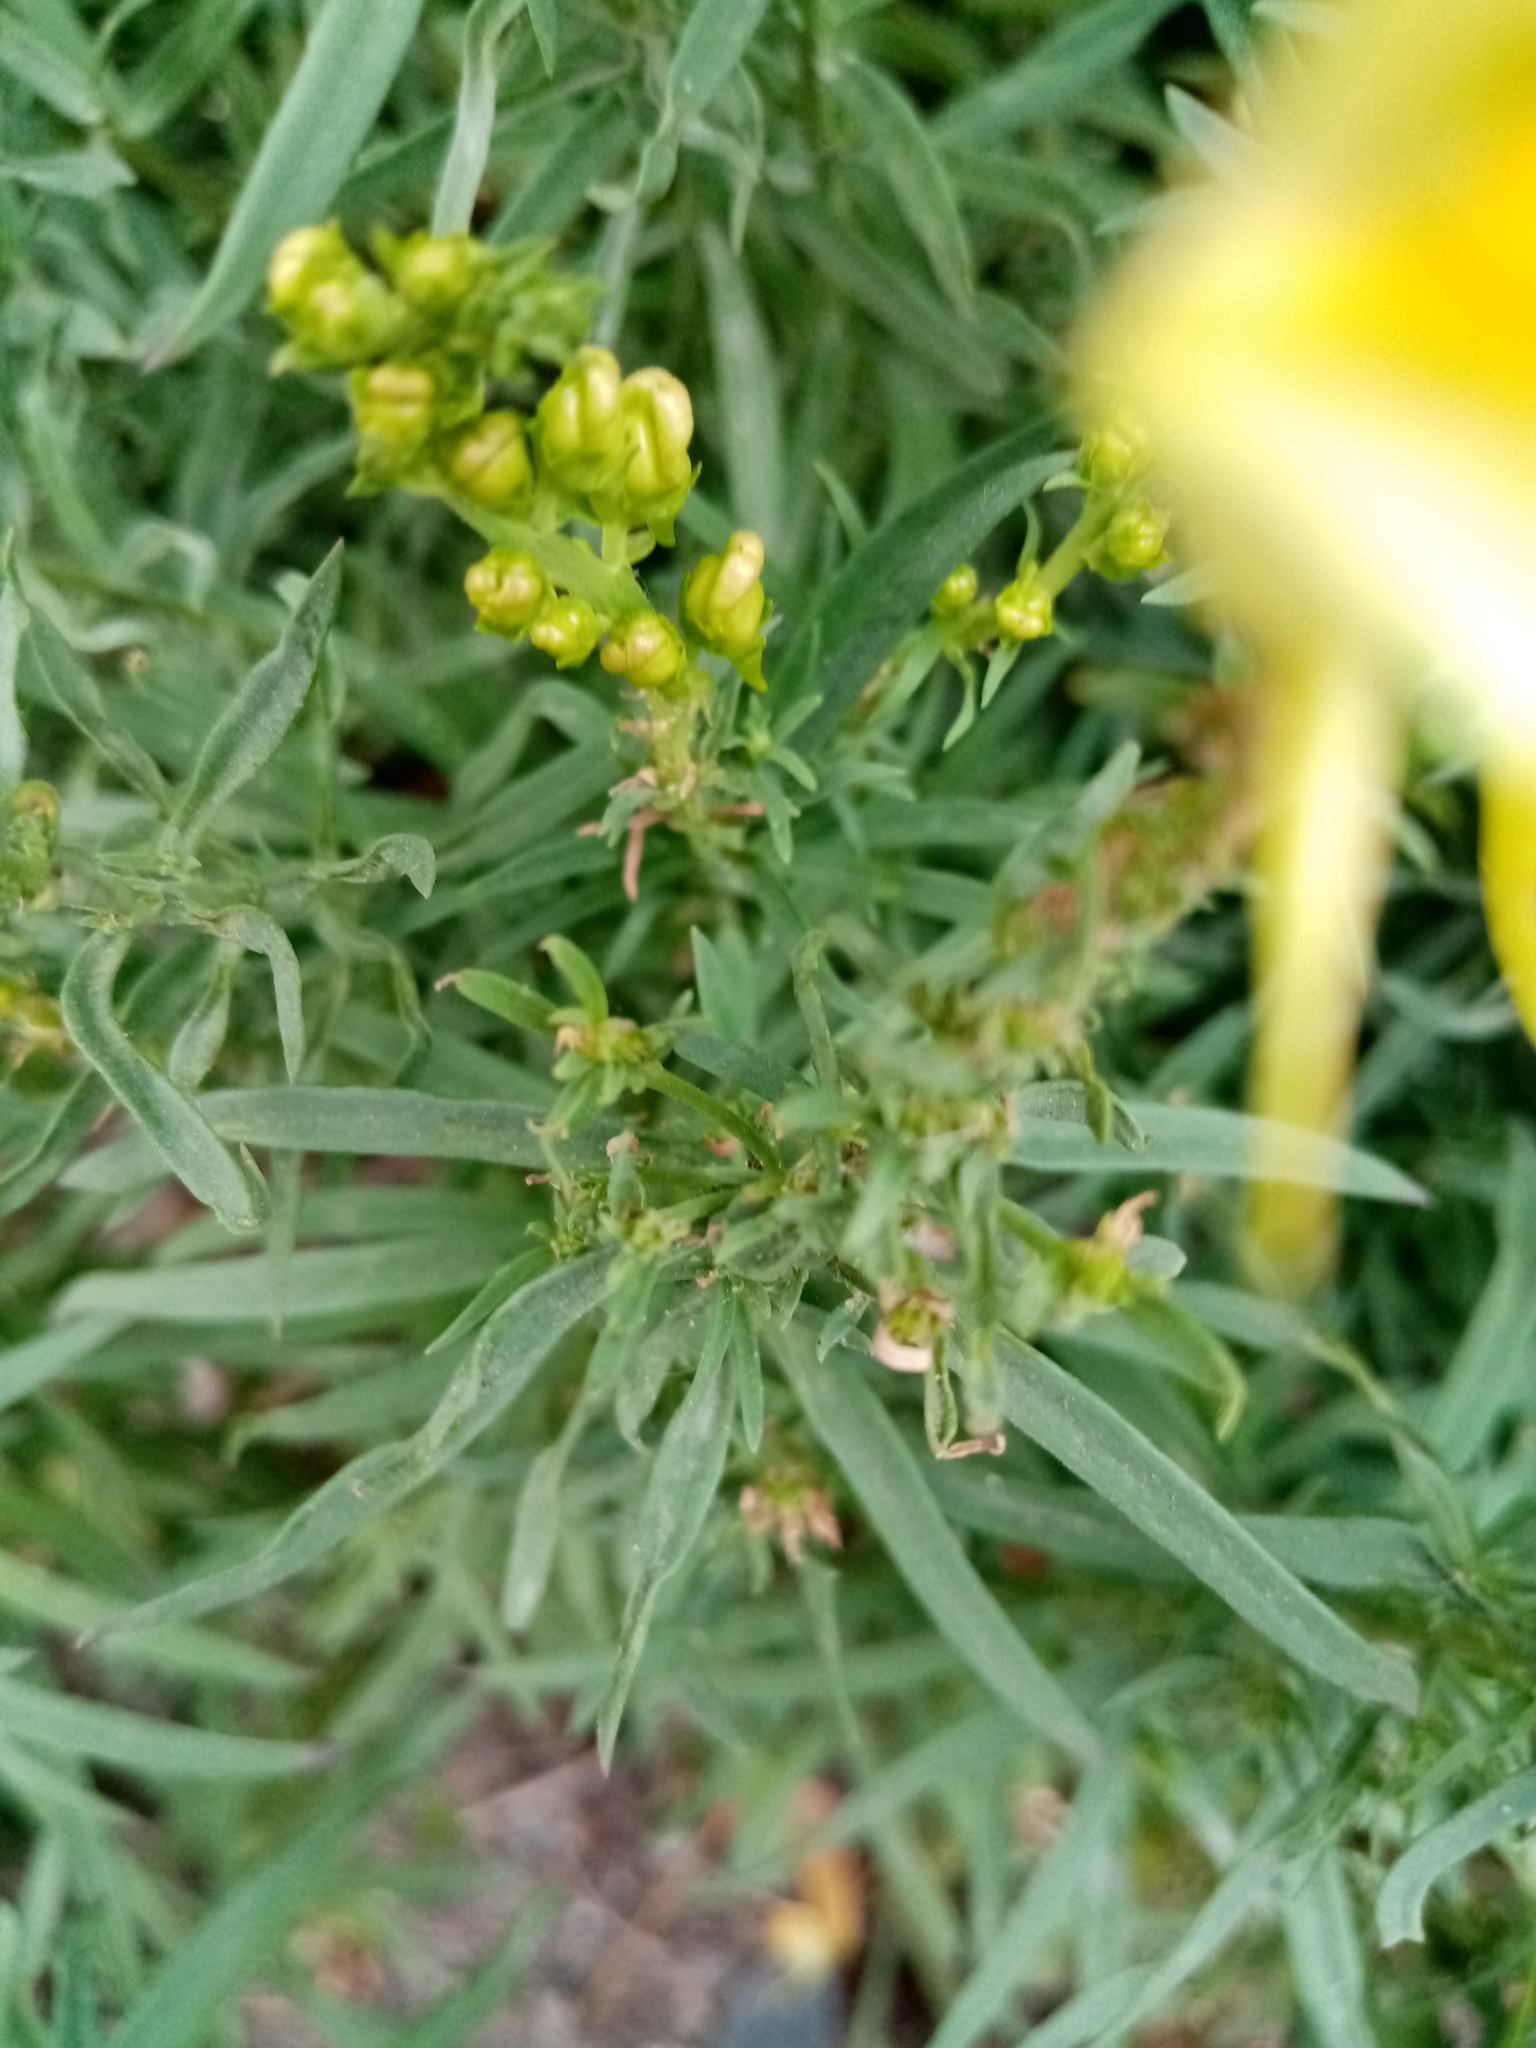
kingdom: Plantae
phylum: Tracheophyta
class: Magnoliopsida
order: Lamiales
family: Plantaginaceae
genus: Linaria
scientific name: Linaria vulgaris
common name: Butter and eggs
